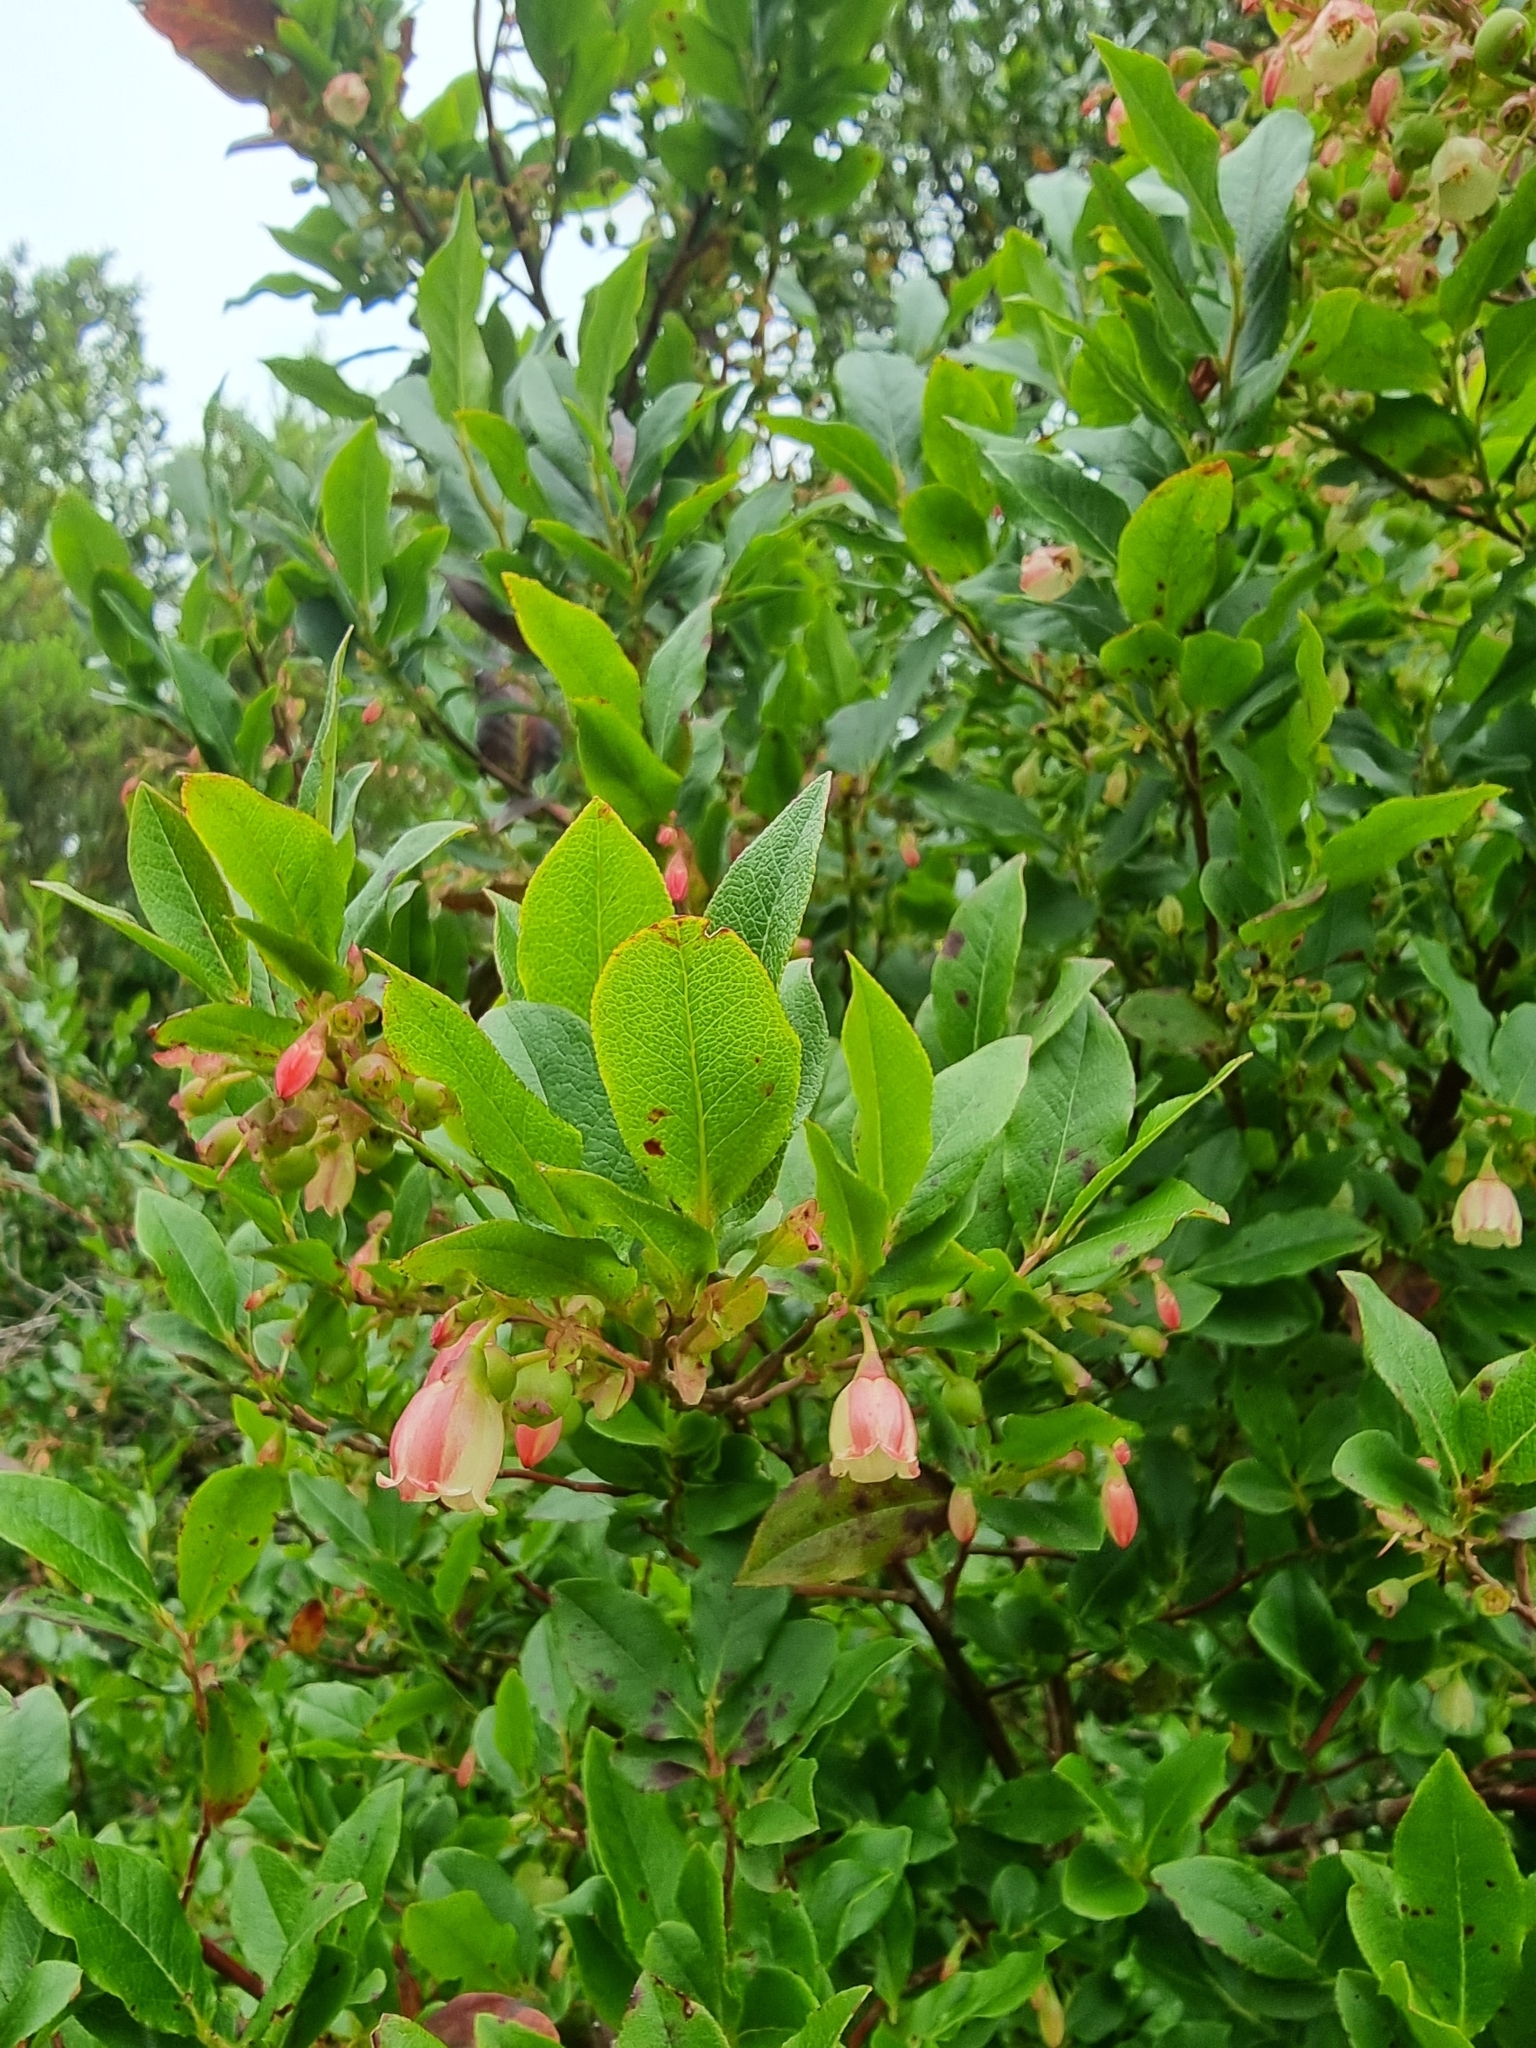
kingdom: Plantae
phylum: Tracheophyta
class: Magnoliopsida
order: Ericales
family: Ericaceae
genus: Vaccinium
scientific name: Vaccinium padifolium
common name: Madeiran blueberry
